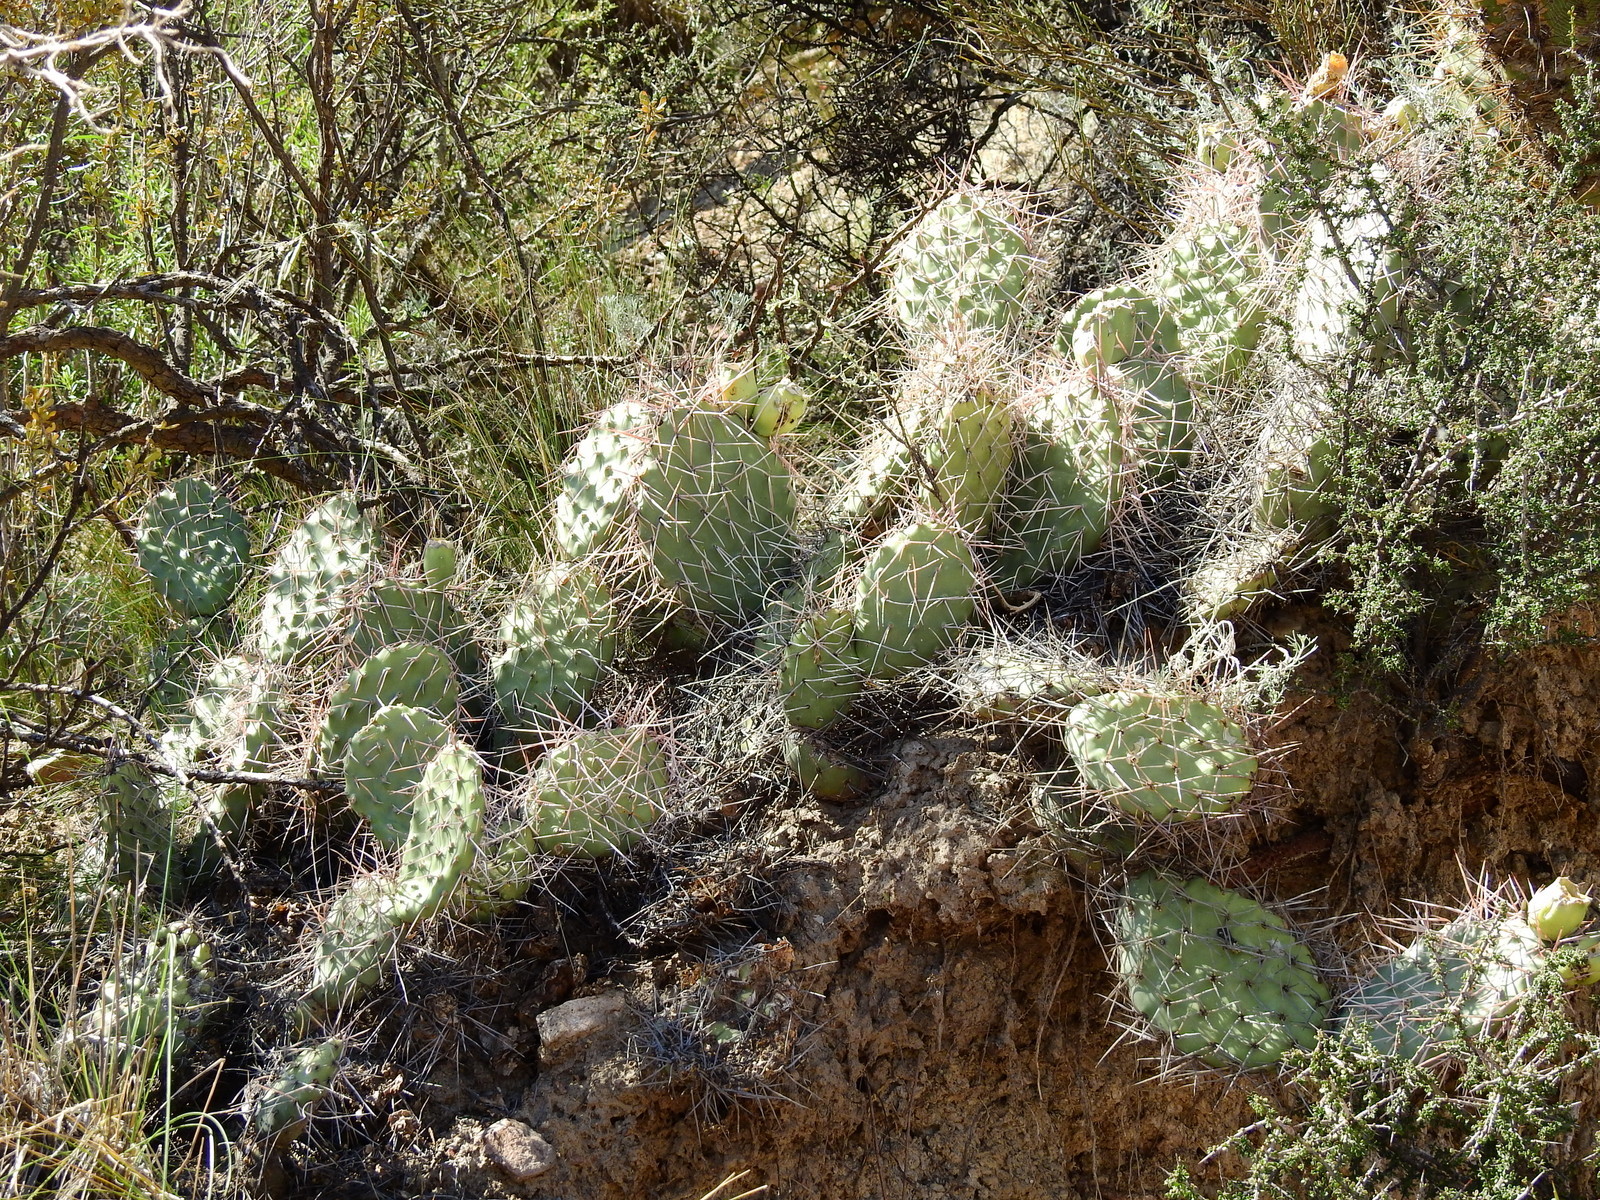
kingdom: Plantae
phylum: Tracheophyta
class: Magnoliopsida
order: Caryophyllales
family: Cactaceae
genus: Opuntia
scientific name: Opuntia sulphurea
